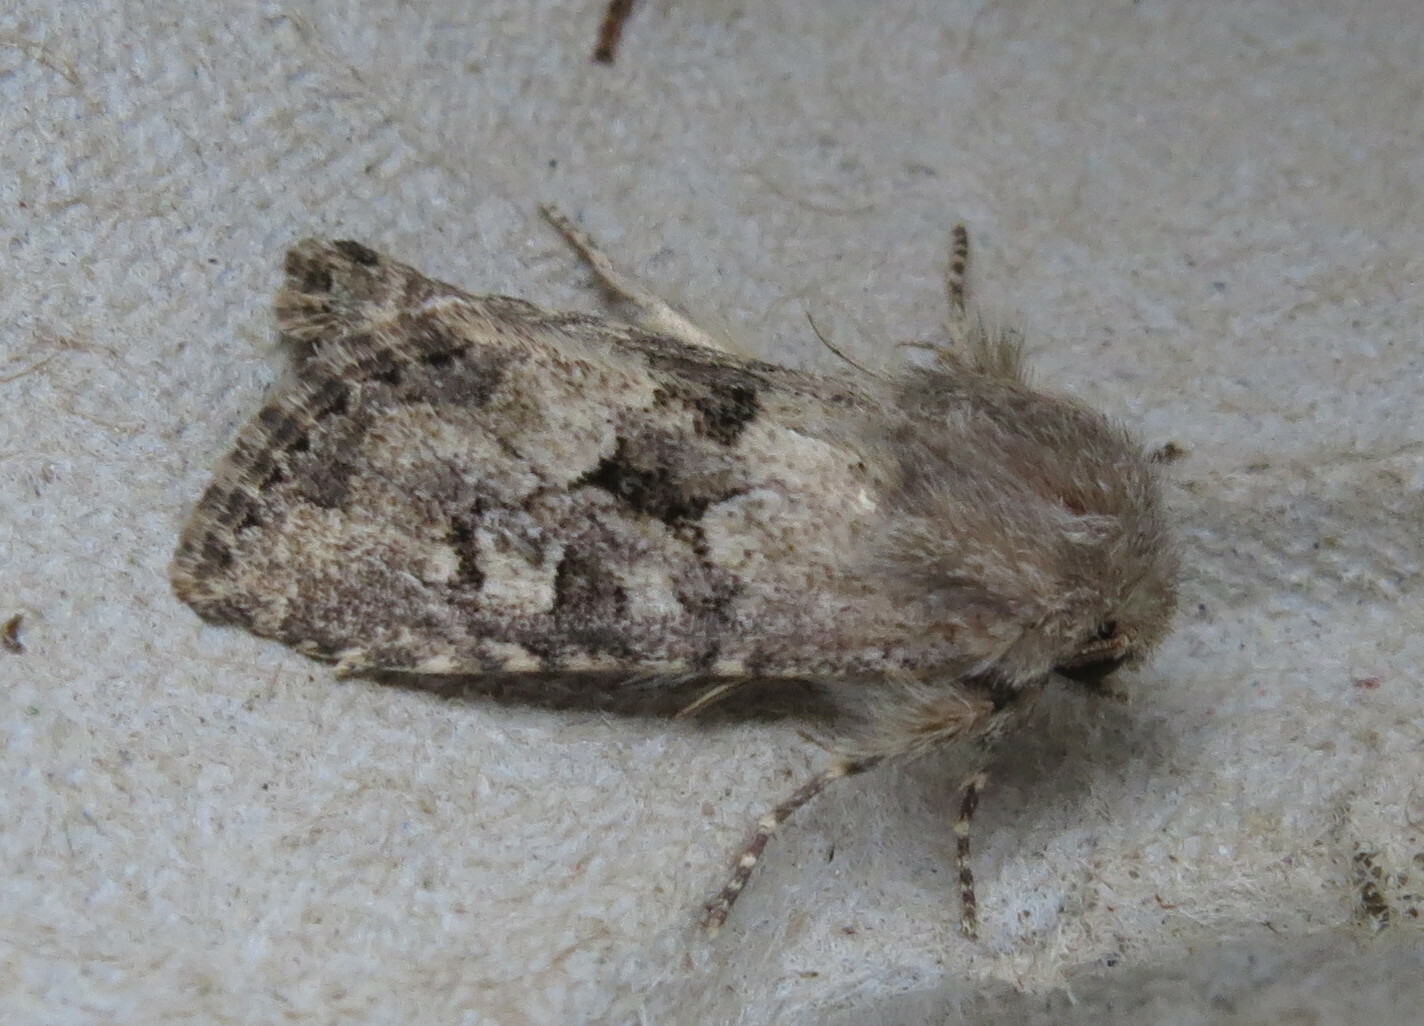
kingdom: Animalia
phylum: Arthropoda
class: Insecta
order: Lepidoptera
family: Noctuidae
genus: Luperina
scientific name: Luperina testacea
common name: Flounced rustic
